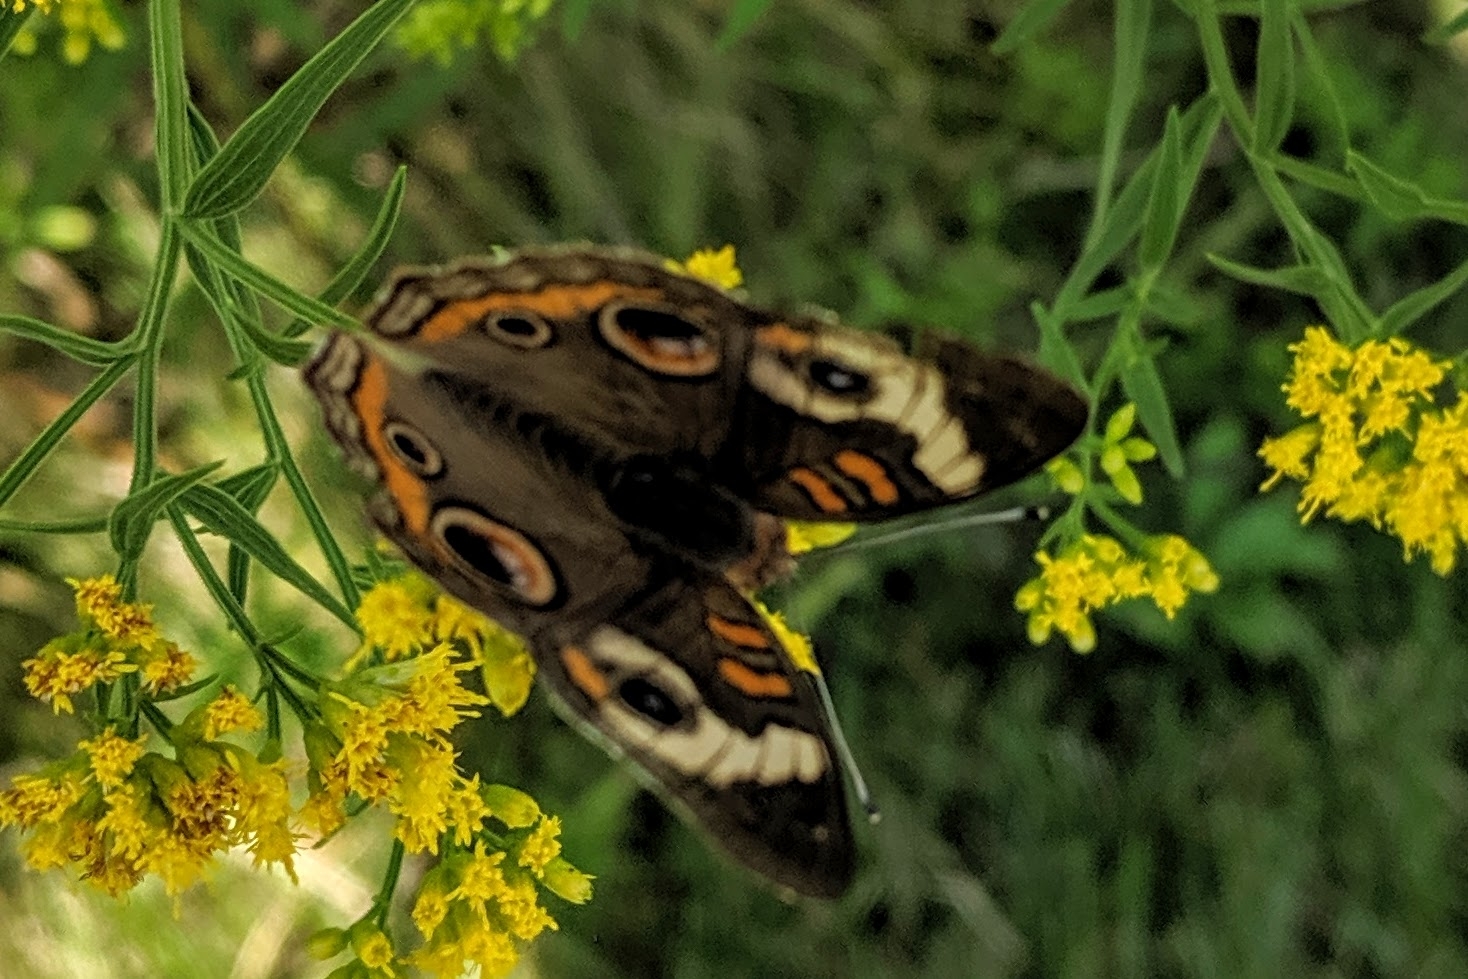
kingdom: Animalia
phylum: Arthropoda
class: Insecta
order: Lepidoptera
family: Nymphalidae
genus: Junonia
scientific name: Junonia coenia
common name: Common buckeye
